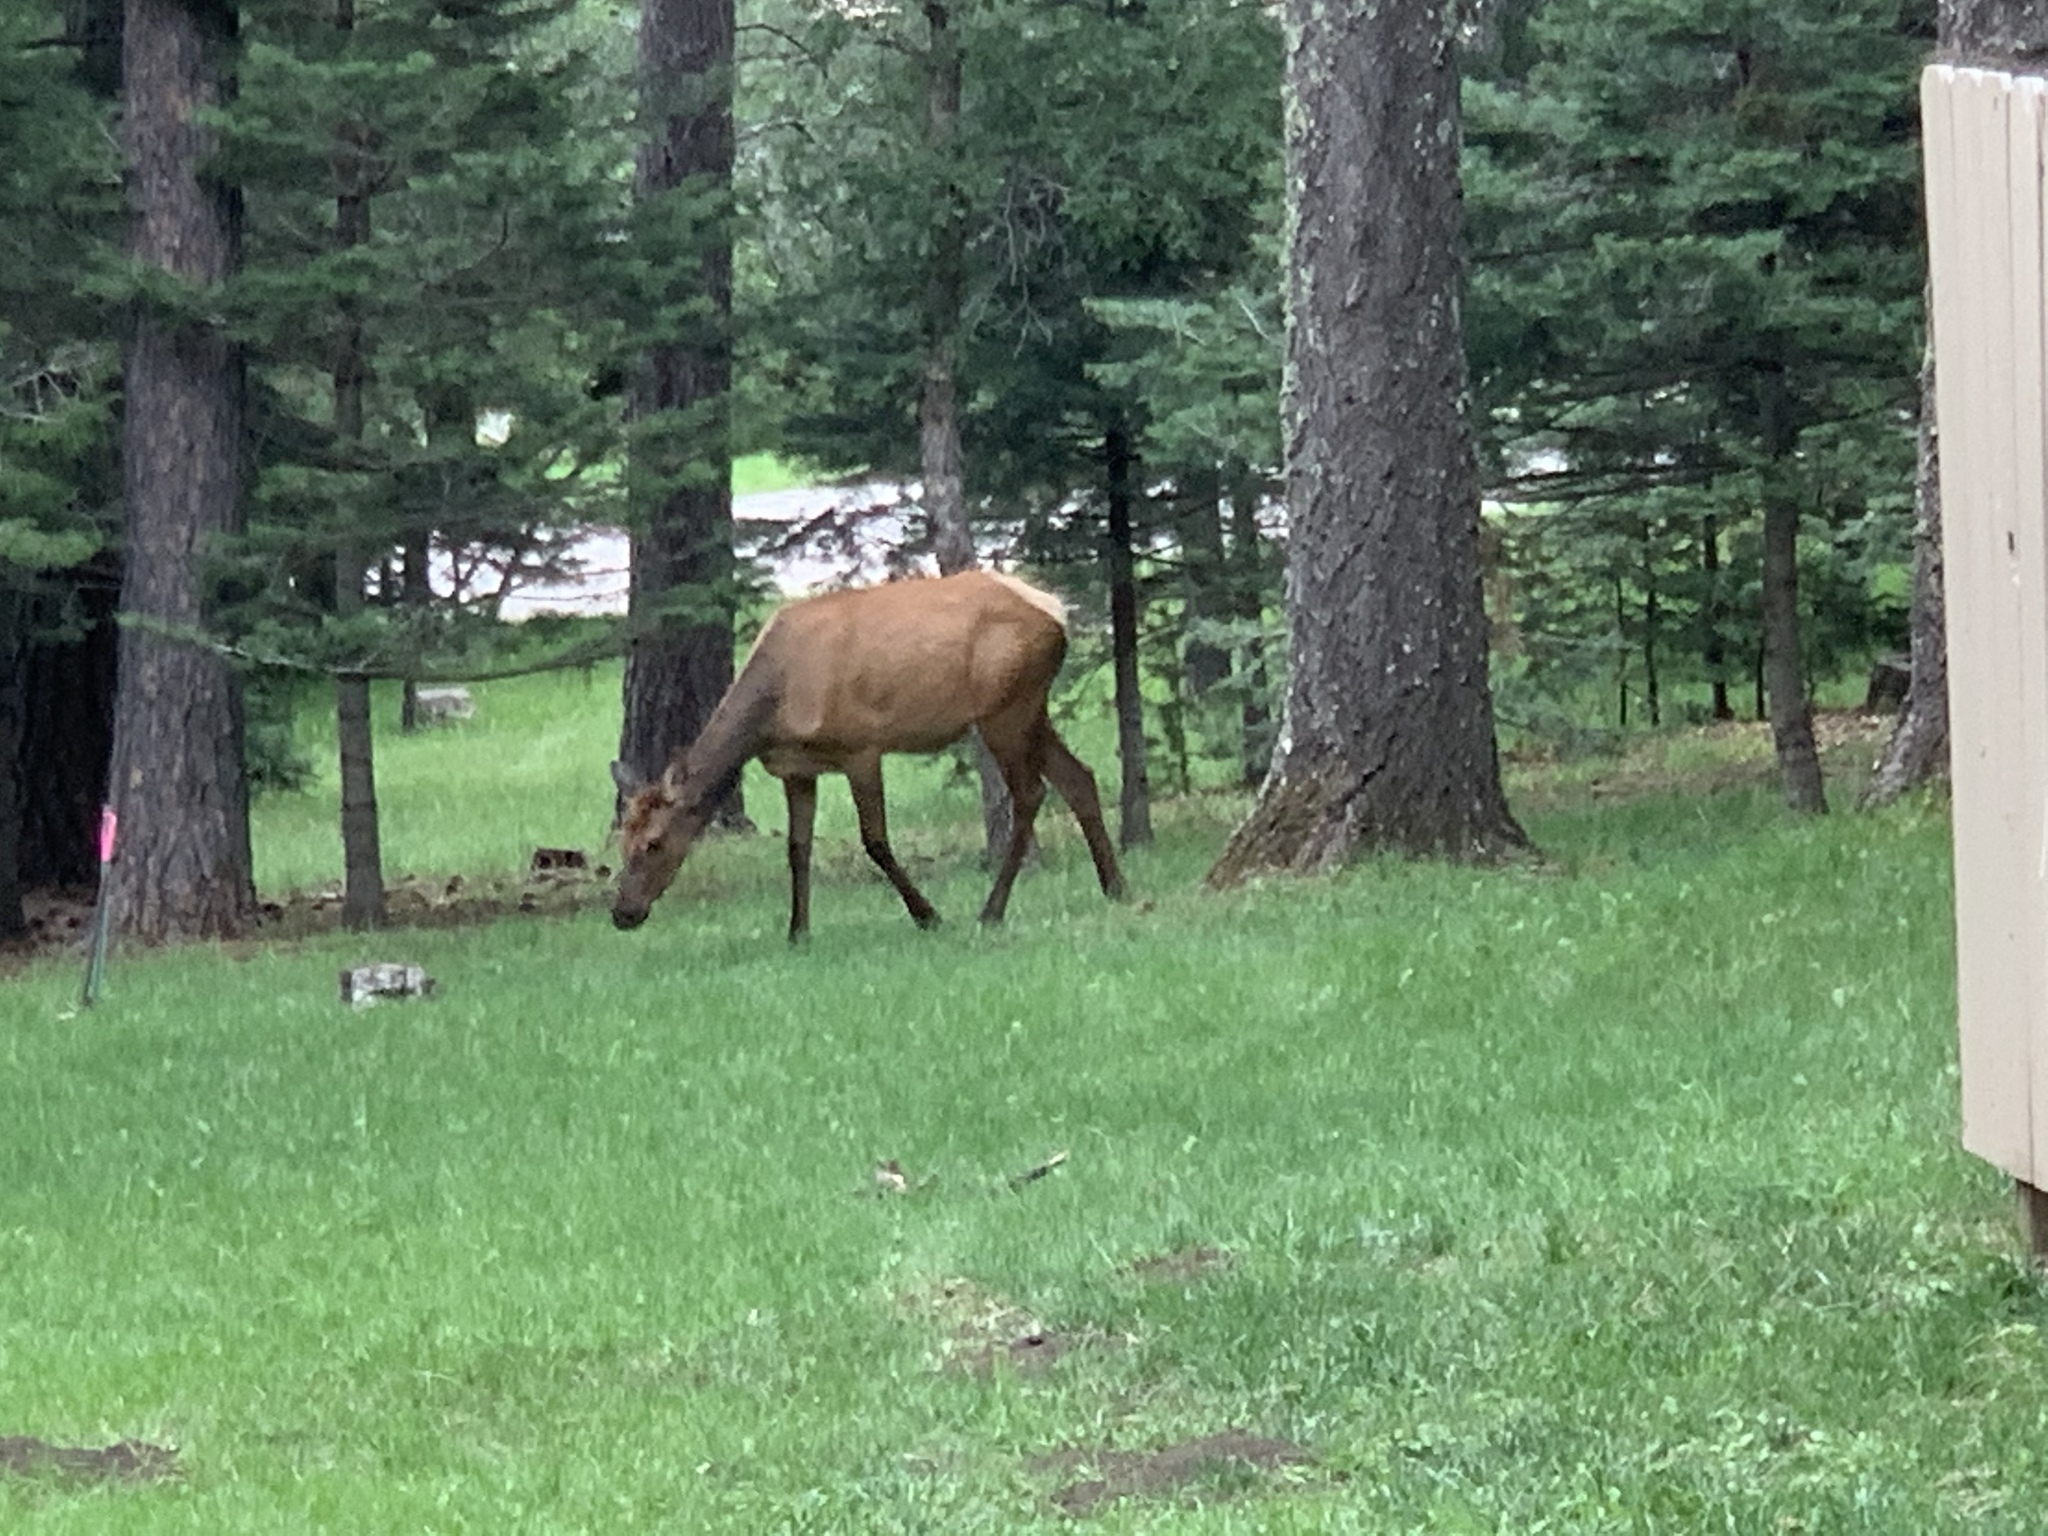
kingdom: Animalia
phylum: Chordata
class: Mammalia
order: Artiodactyla
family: Cervidae
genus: Cervus
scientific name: Cervus elaphus
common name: Red deer
